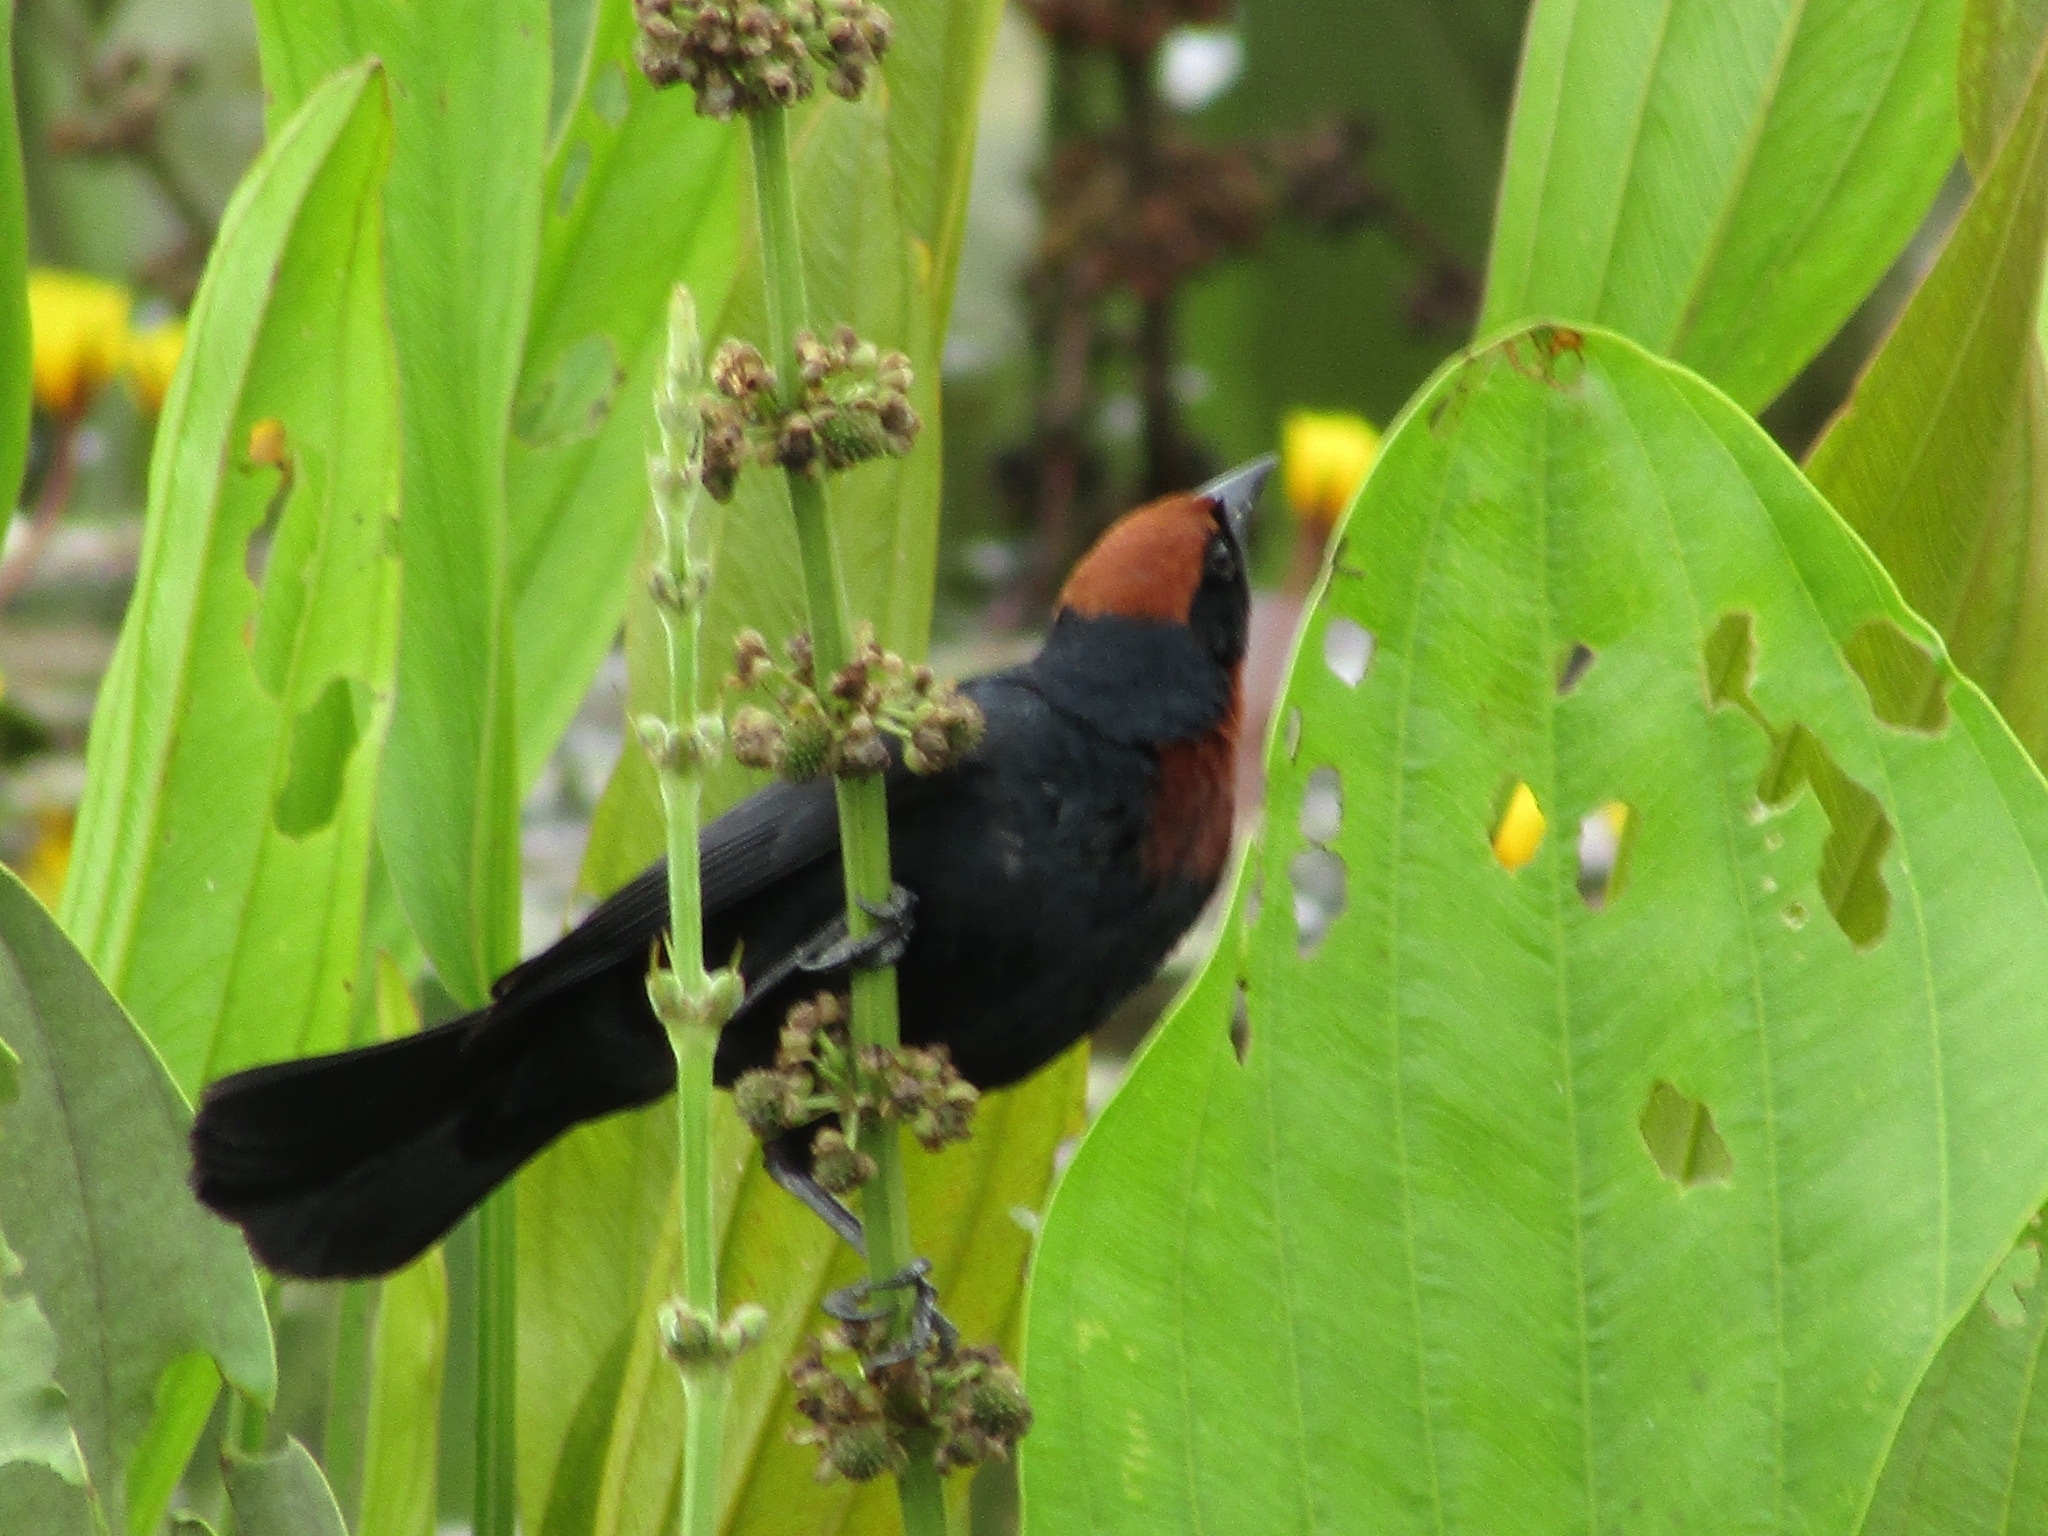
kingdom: Animalia
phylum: Chordata
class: Aves
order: Passeriformes
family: Icteridae
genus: Chrysomus
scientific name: Chrysomus ruficapillus
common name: Chestnut-capped blackbird
